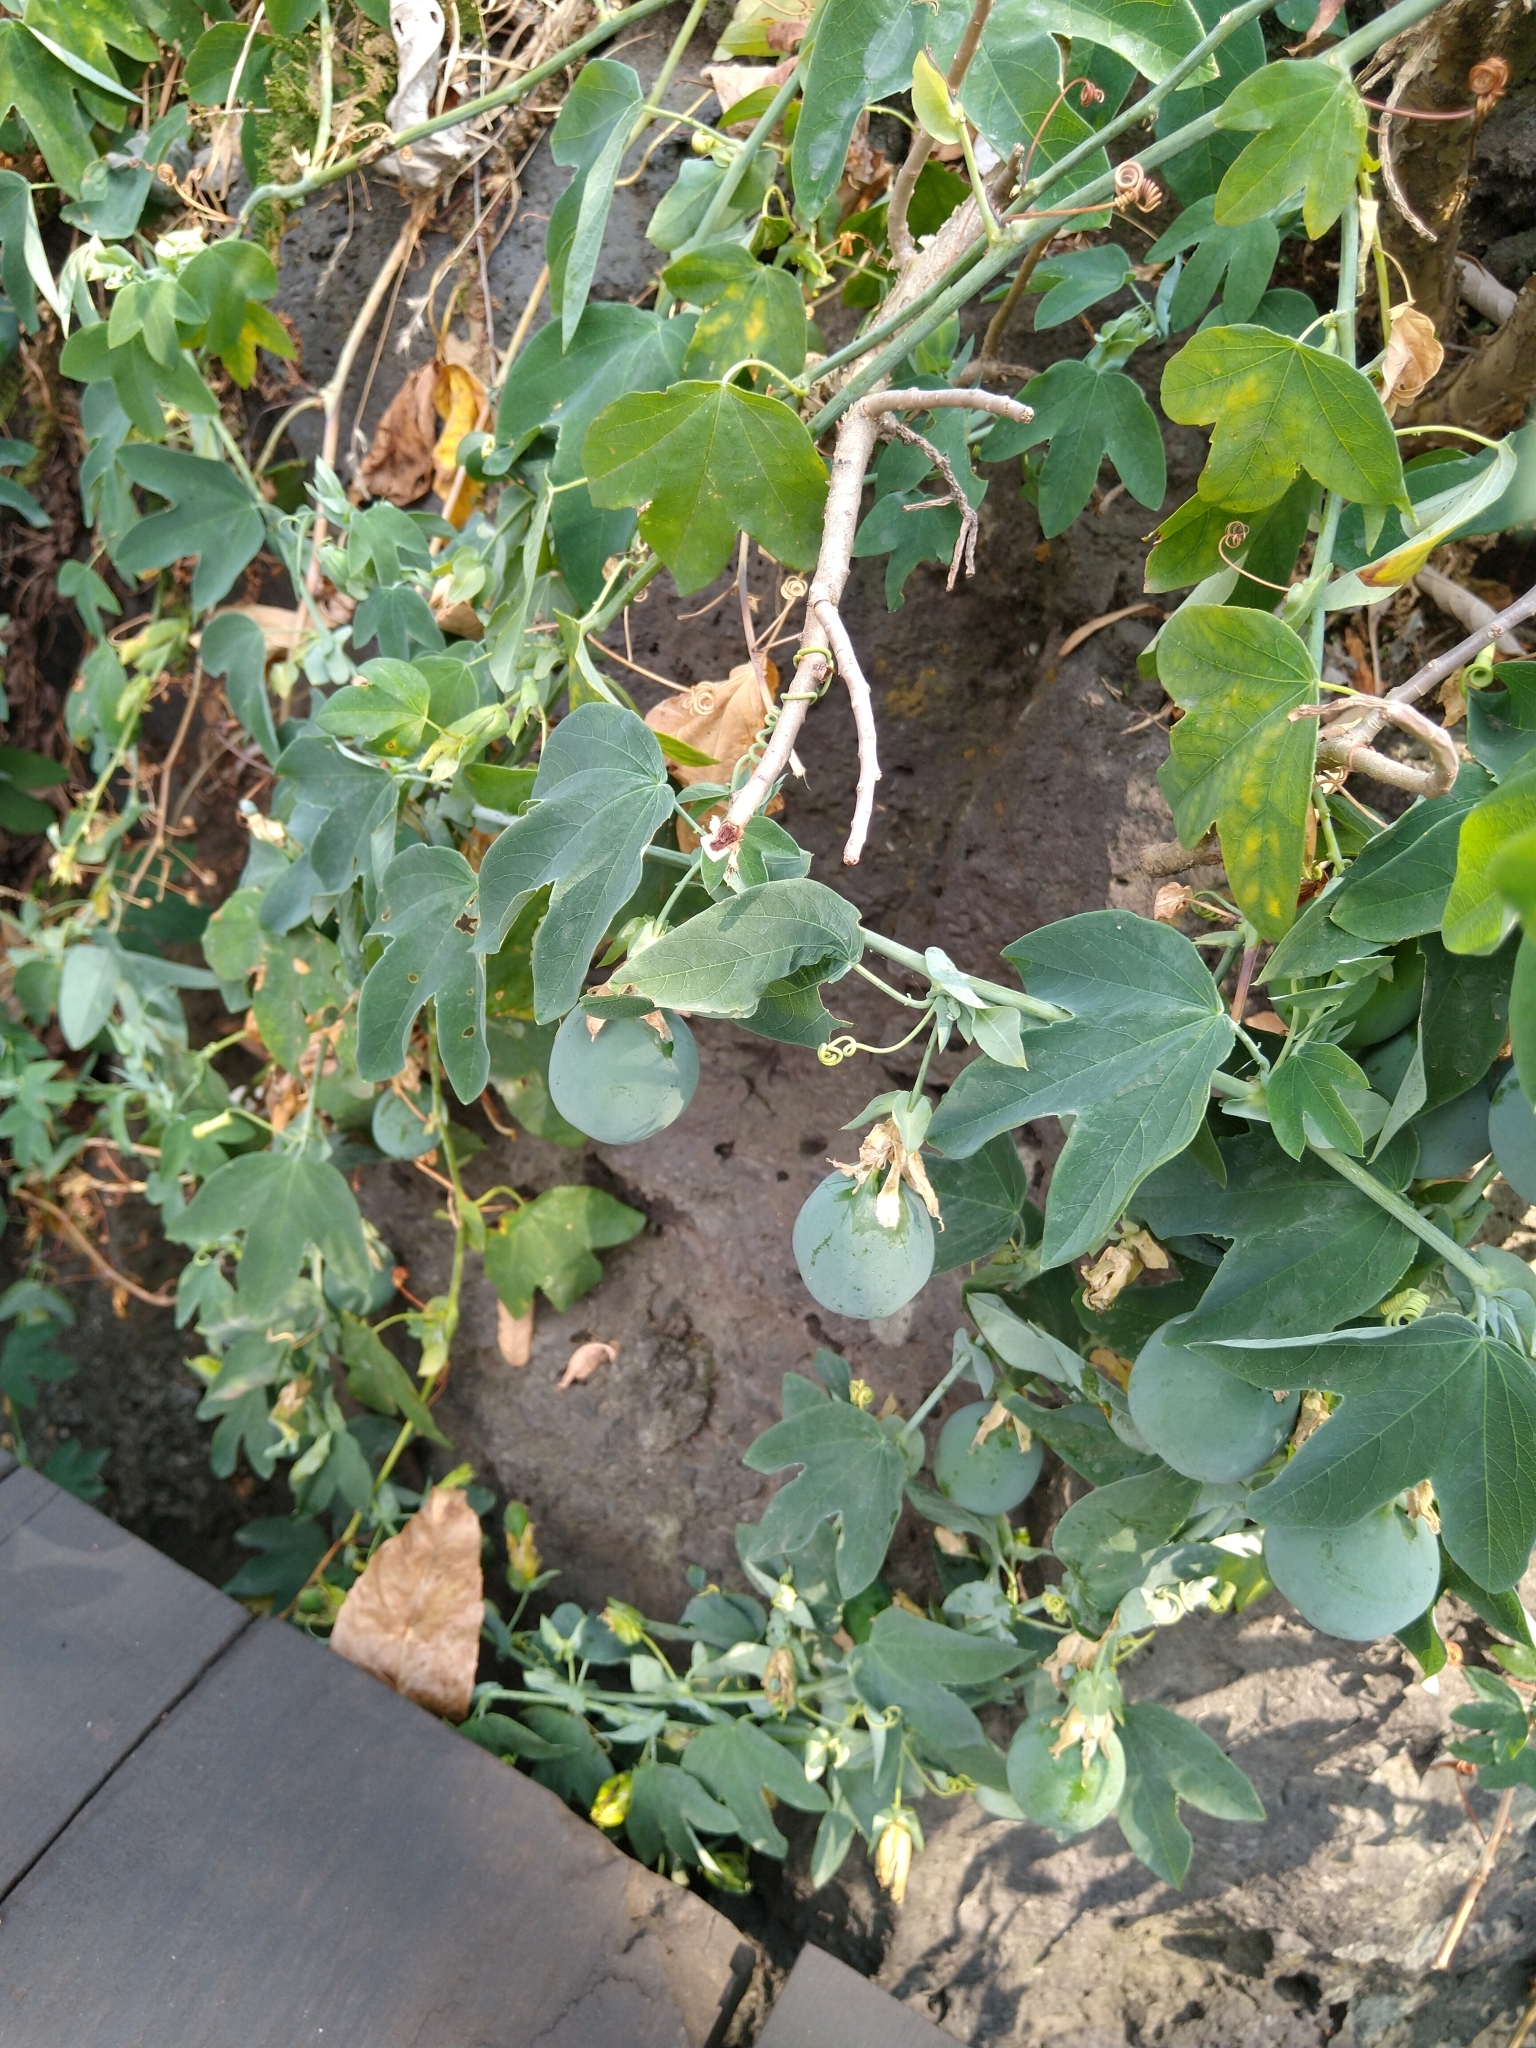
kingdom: Plantae
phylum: Tracheophyta
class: Magnoliopsida
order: Malpighiales
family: Passifloraceae
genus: Passiflora
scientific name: Passiflora subpeltata
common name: White passionflower
